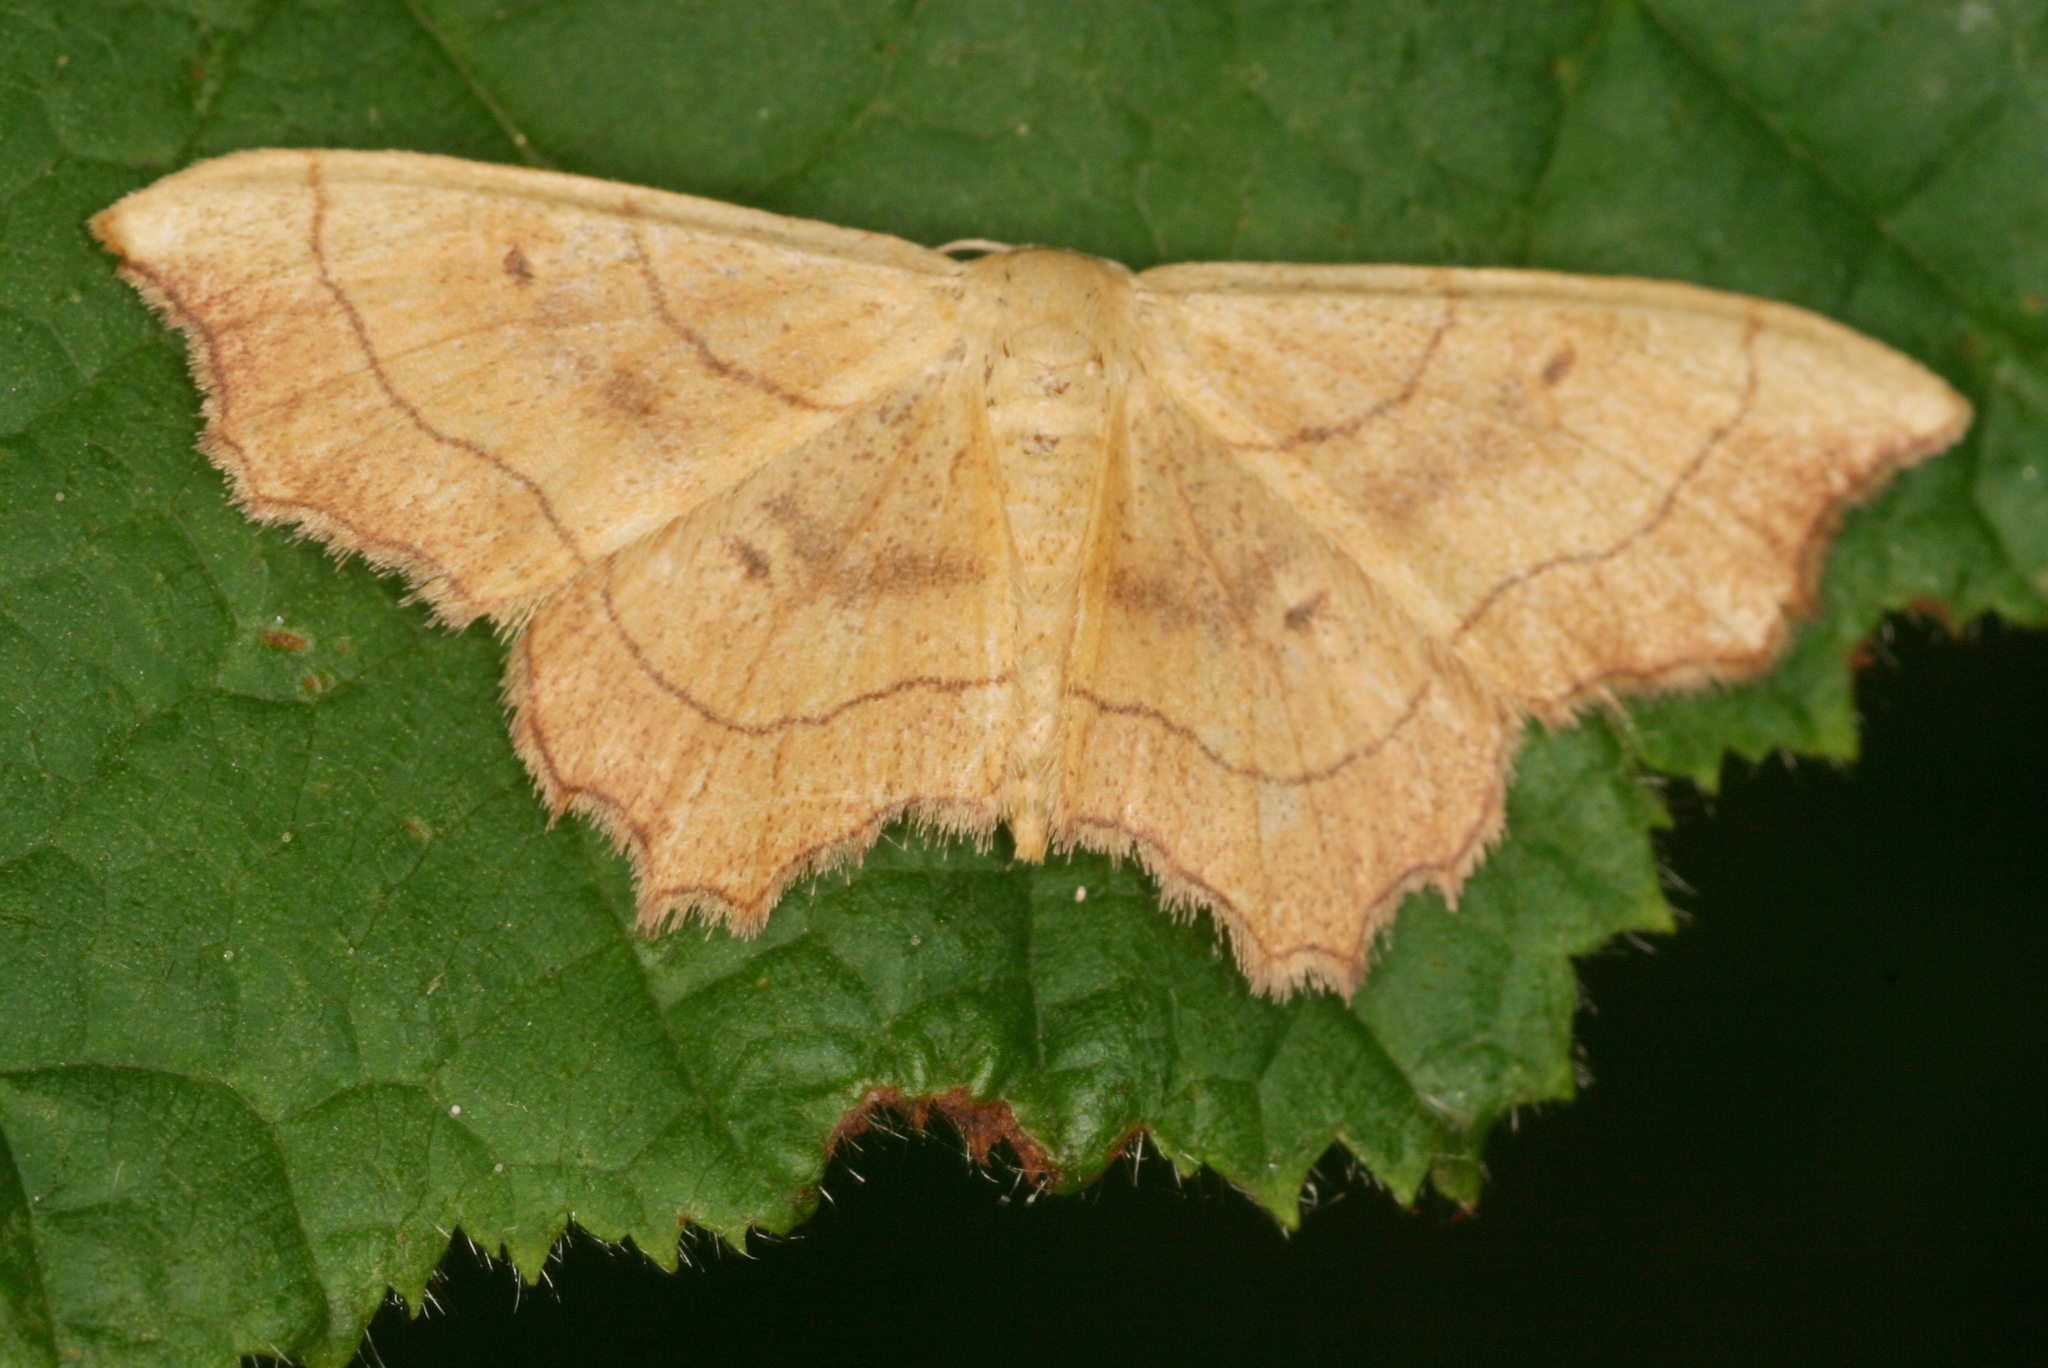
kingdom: Animalia
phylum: Arthropoda
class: Insecta
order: Lepidoptera
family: Geometridae
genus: Idaea
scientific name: Idaea emarginata
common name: Small scallop
